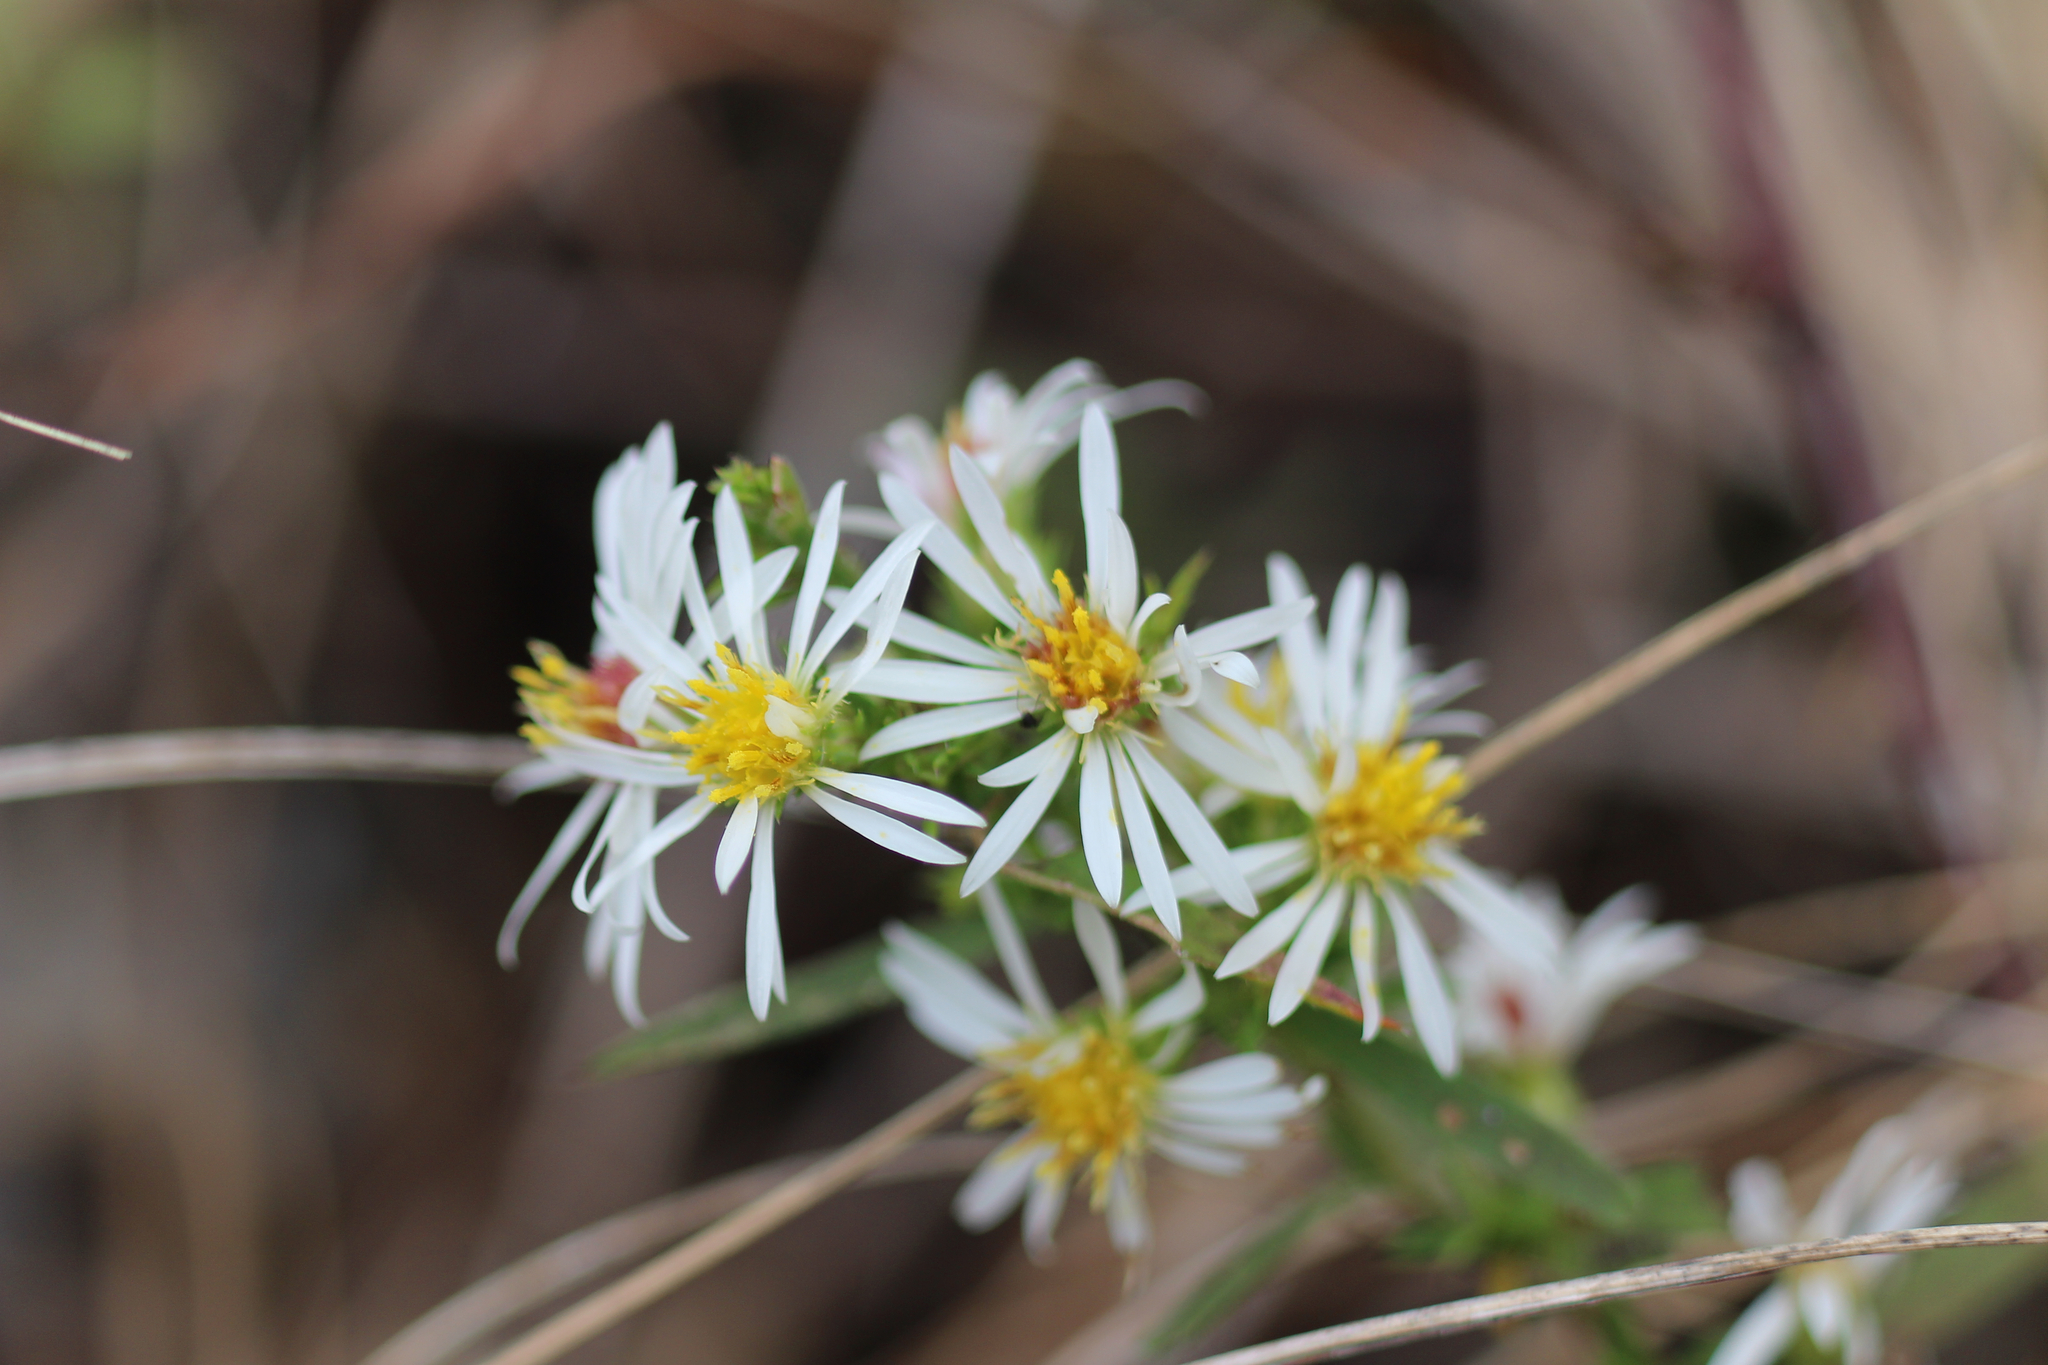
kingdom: Plantae
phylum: Tracheophyta
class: Magnoliopsida
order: Asterales
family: Asteraceae
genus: Symphyotrichum
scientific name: Symphyotrichum pilosum
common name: Awl aster
